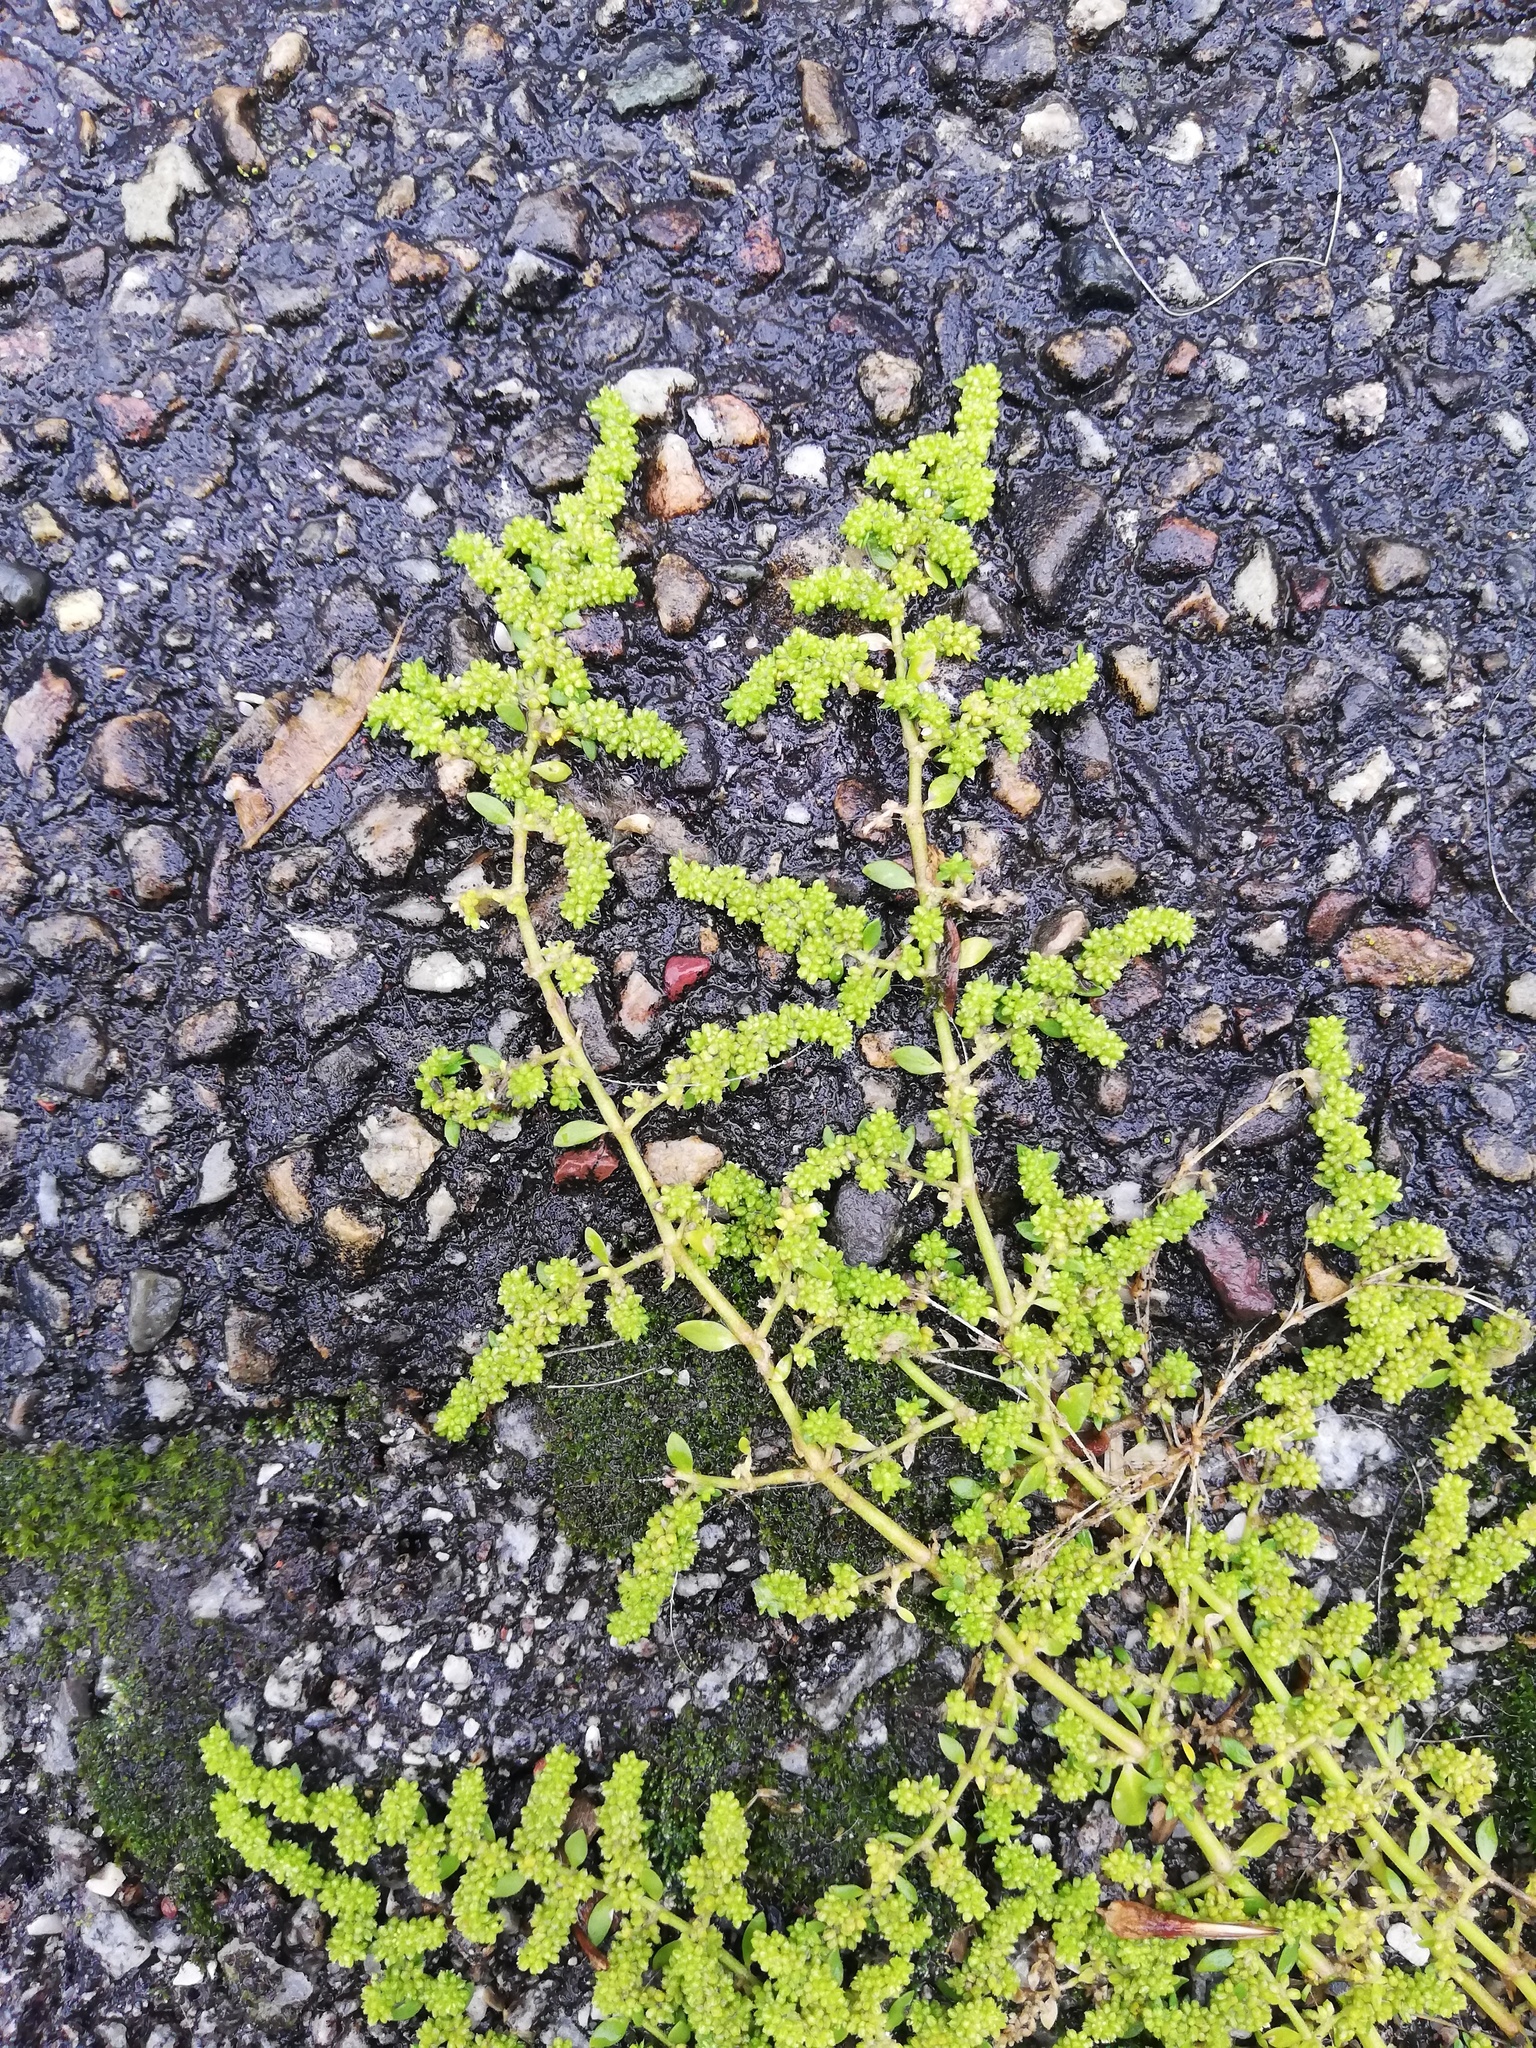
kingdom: Plantae
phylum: Tracheophyta
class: Magnoliopsida
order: Caryophyllales
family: Caryophyllaceae
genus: Herniaria
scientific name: Herniaria glabra
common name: Smooth rupturewort
